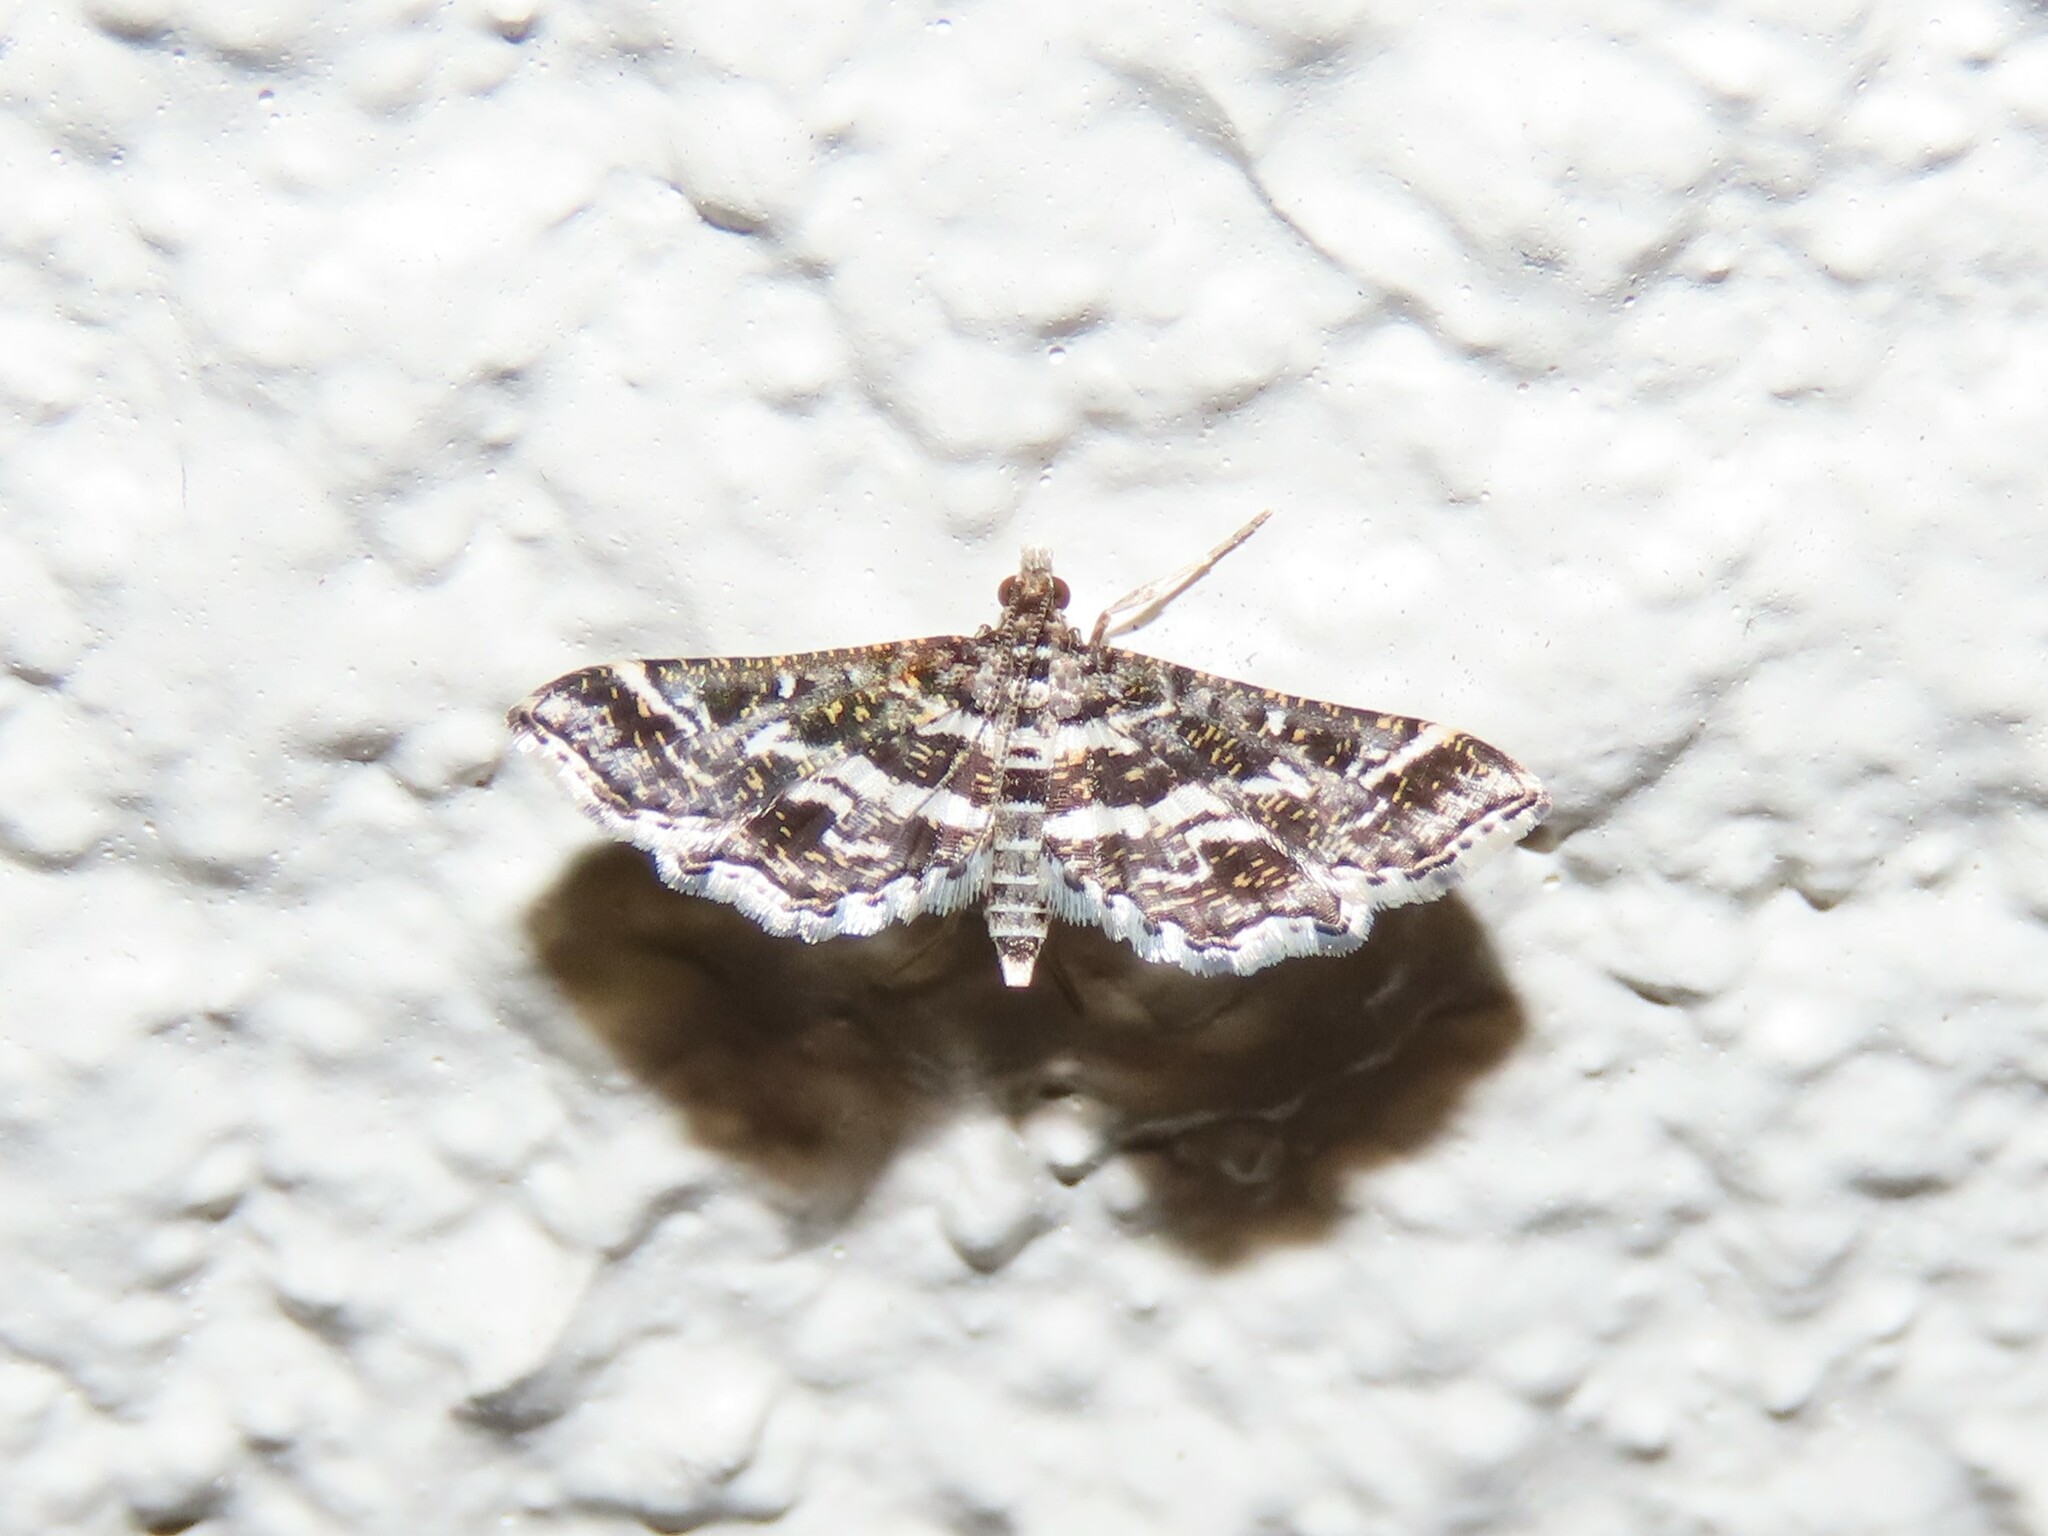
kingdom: Animalia
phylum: Arthropoda
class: Insecta
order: Lepidoptera
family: Crambidae
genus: Diasemiopsis
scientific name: Diasemiopsis ramburialis
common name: Vagrant china-mark
